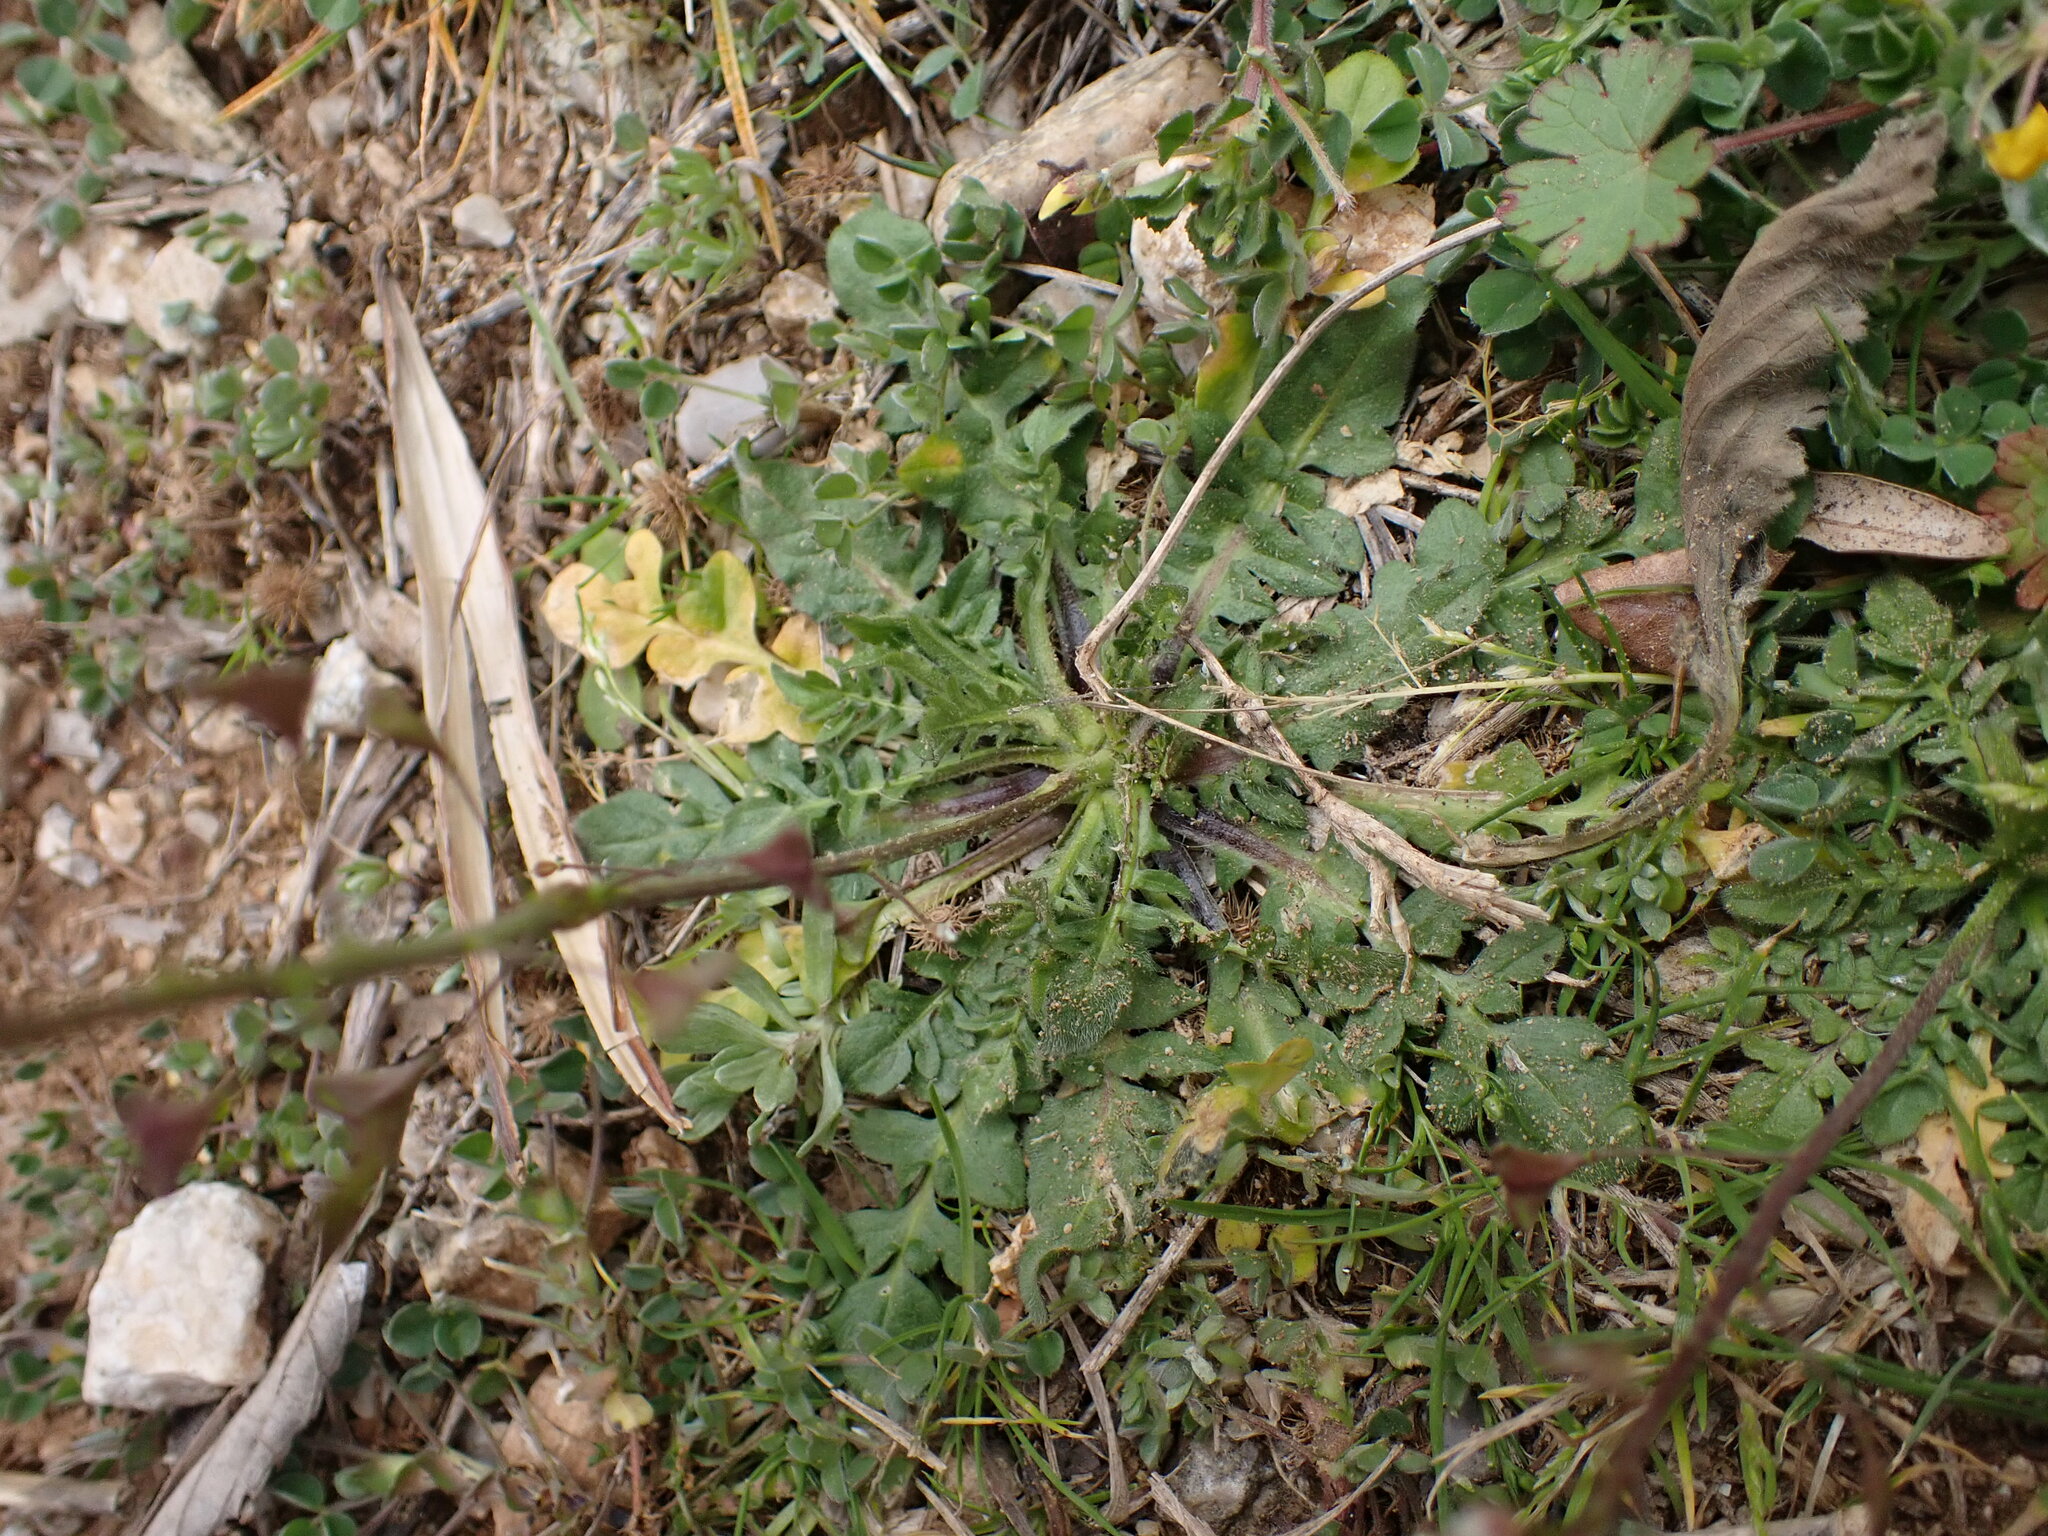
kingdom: Plantae
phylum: Tracheophyta
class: Magnoliopsida
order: Brassicales
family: Brassicaceae
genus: Capsella
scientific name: Capsella bursa-pastoris
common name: Shepherd's purse
